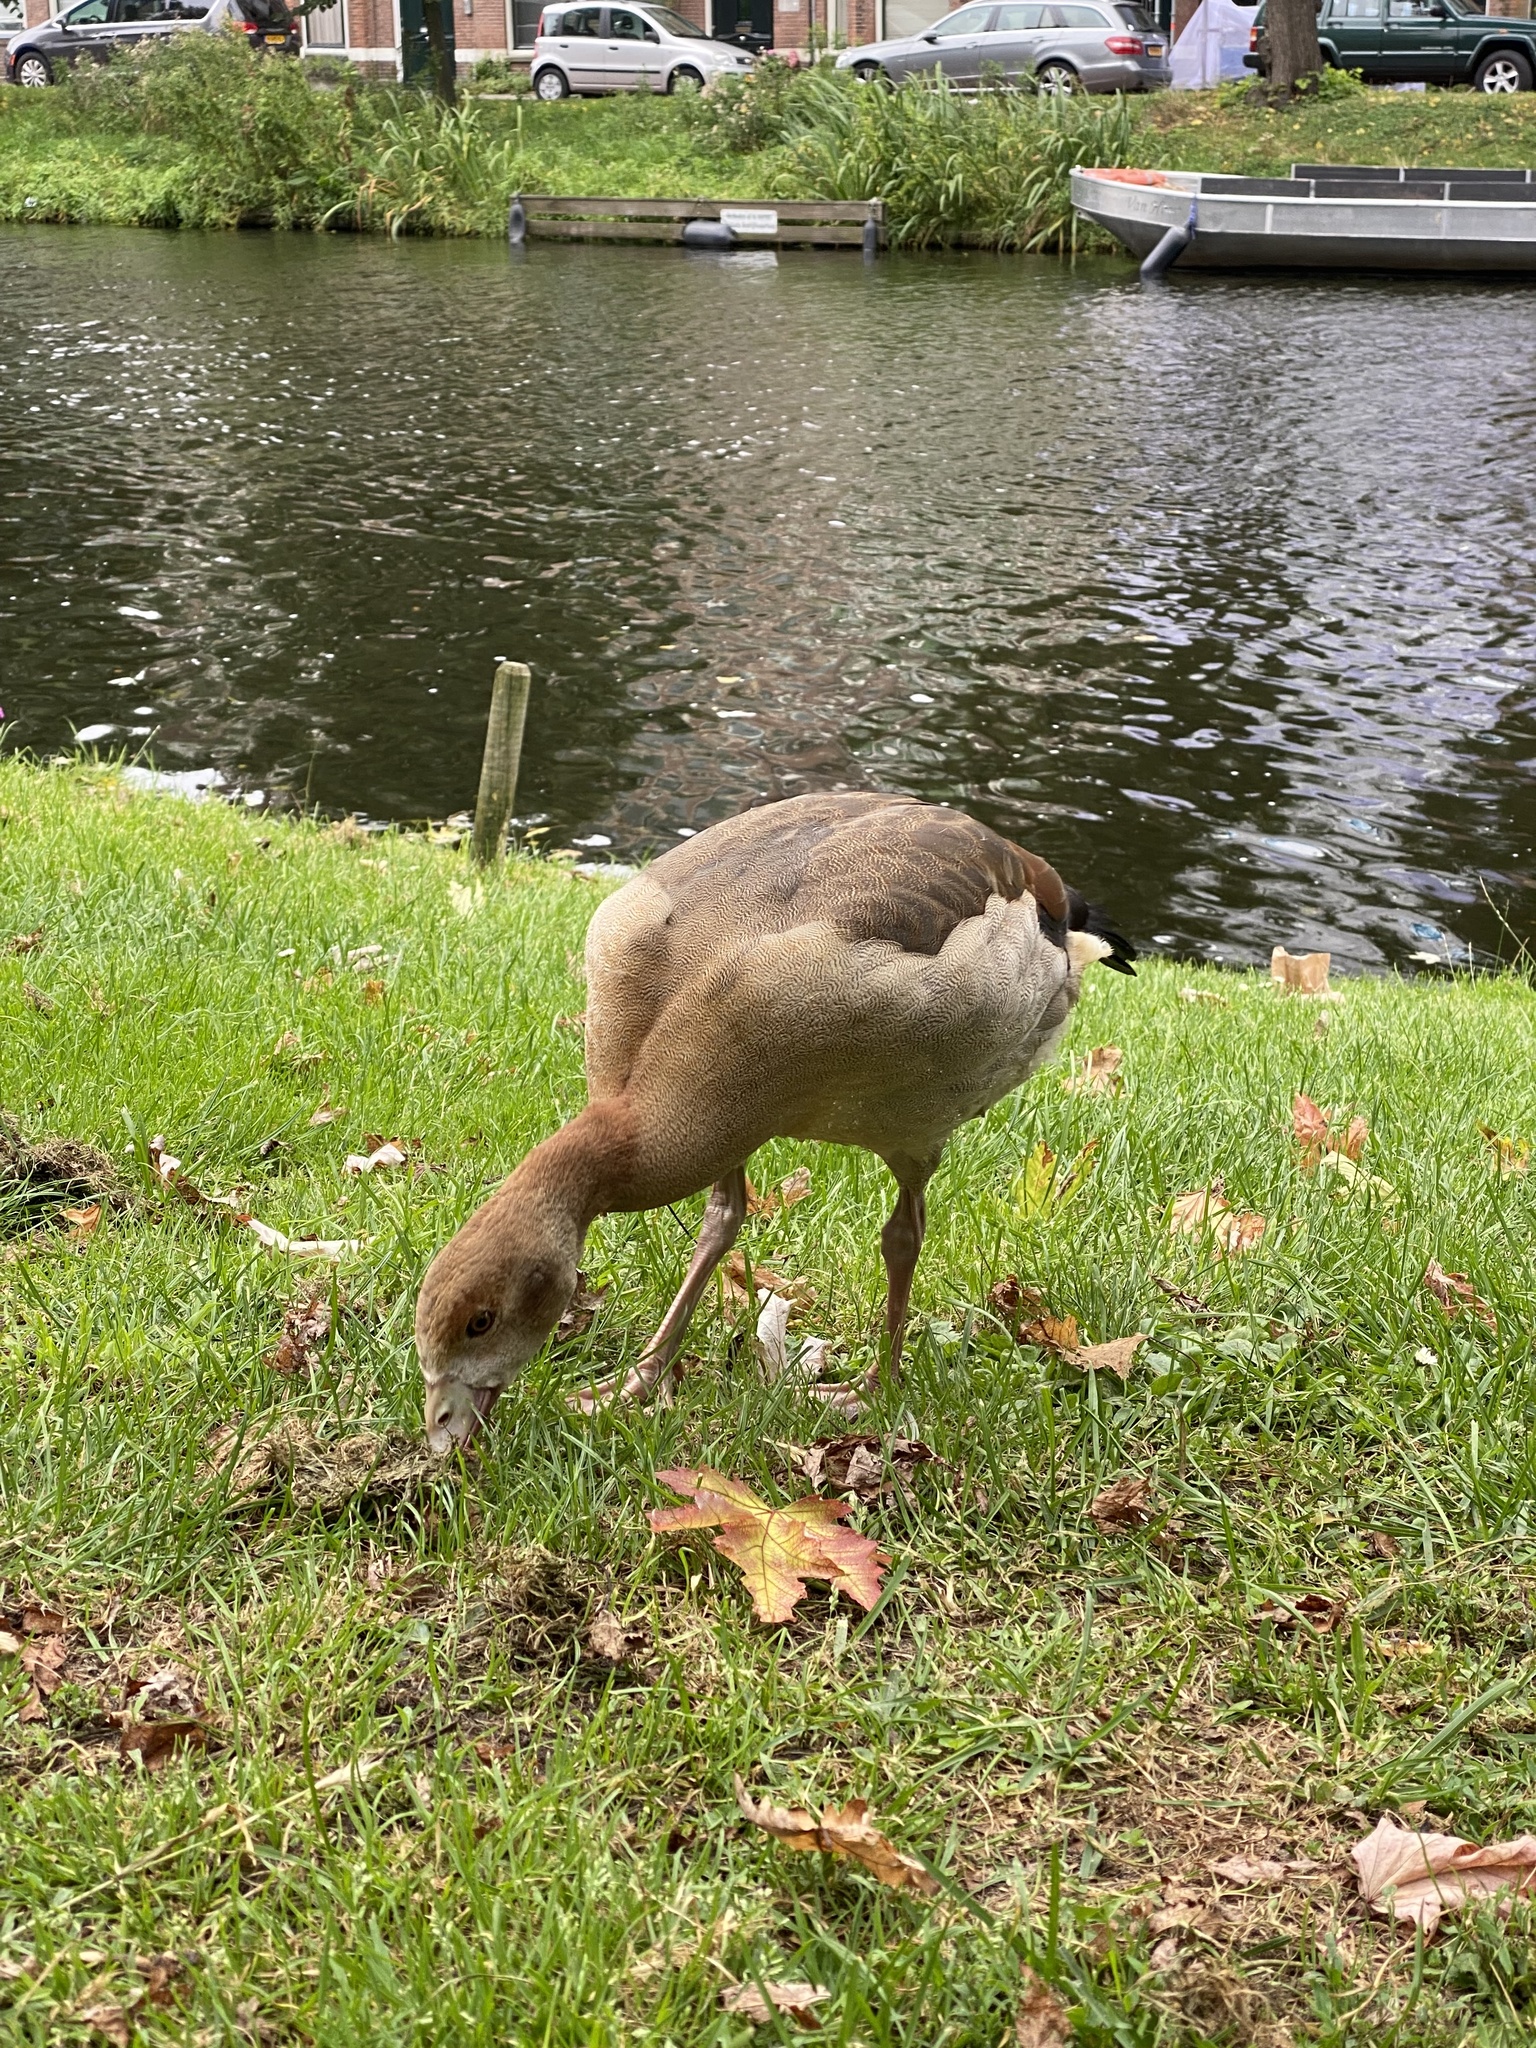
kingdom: Animalia
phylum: Chordata
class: Aves
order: Anseriformes
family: Anatidae
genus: Alopochen
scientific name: Alopochen aegyptiaca
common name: Egyptian goose
